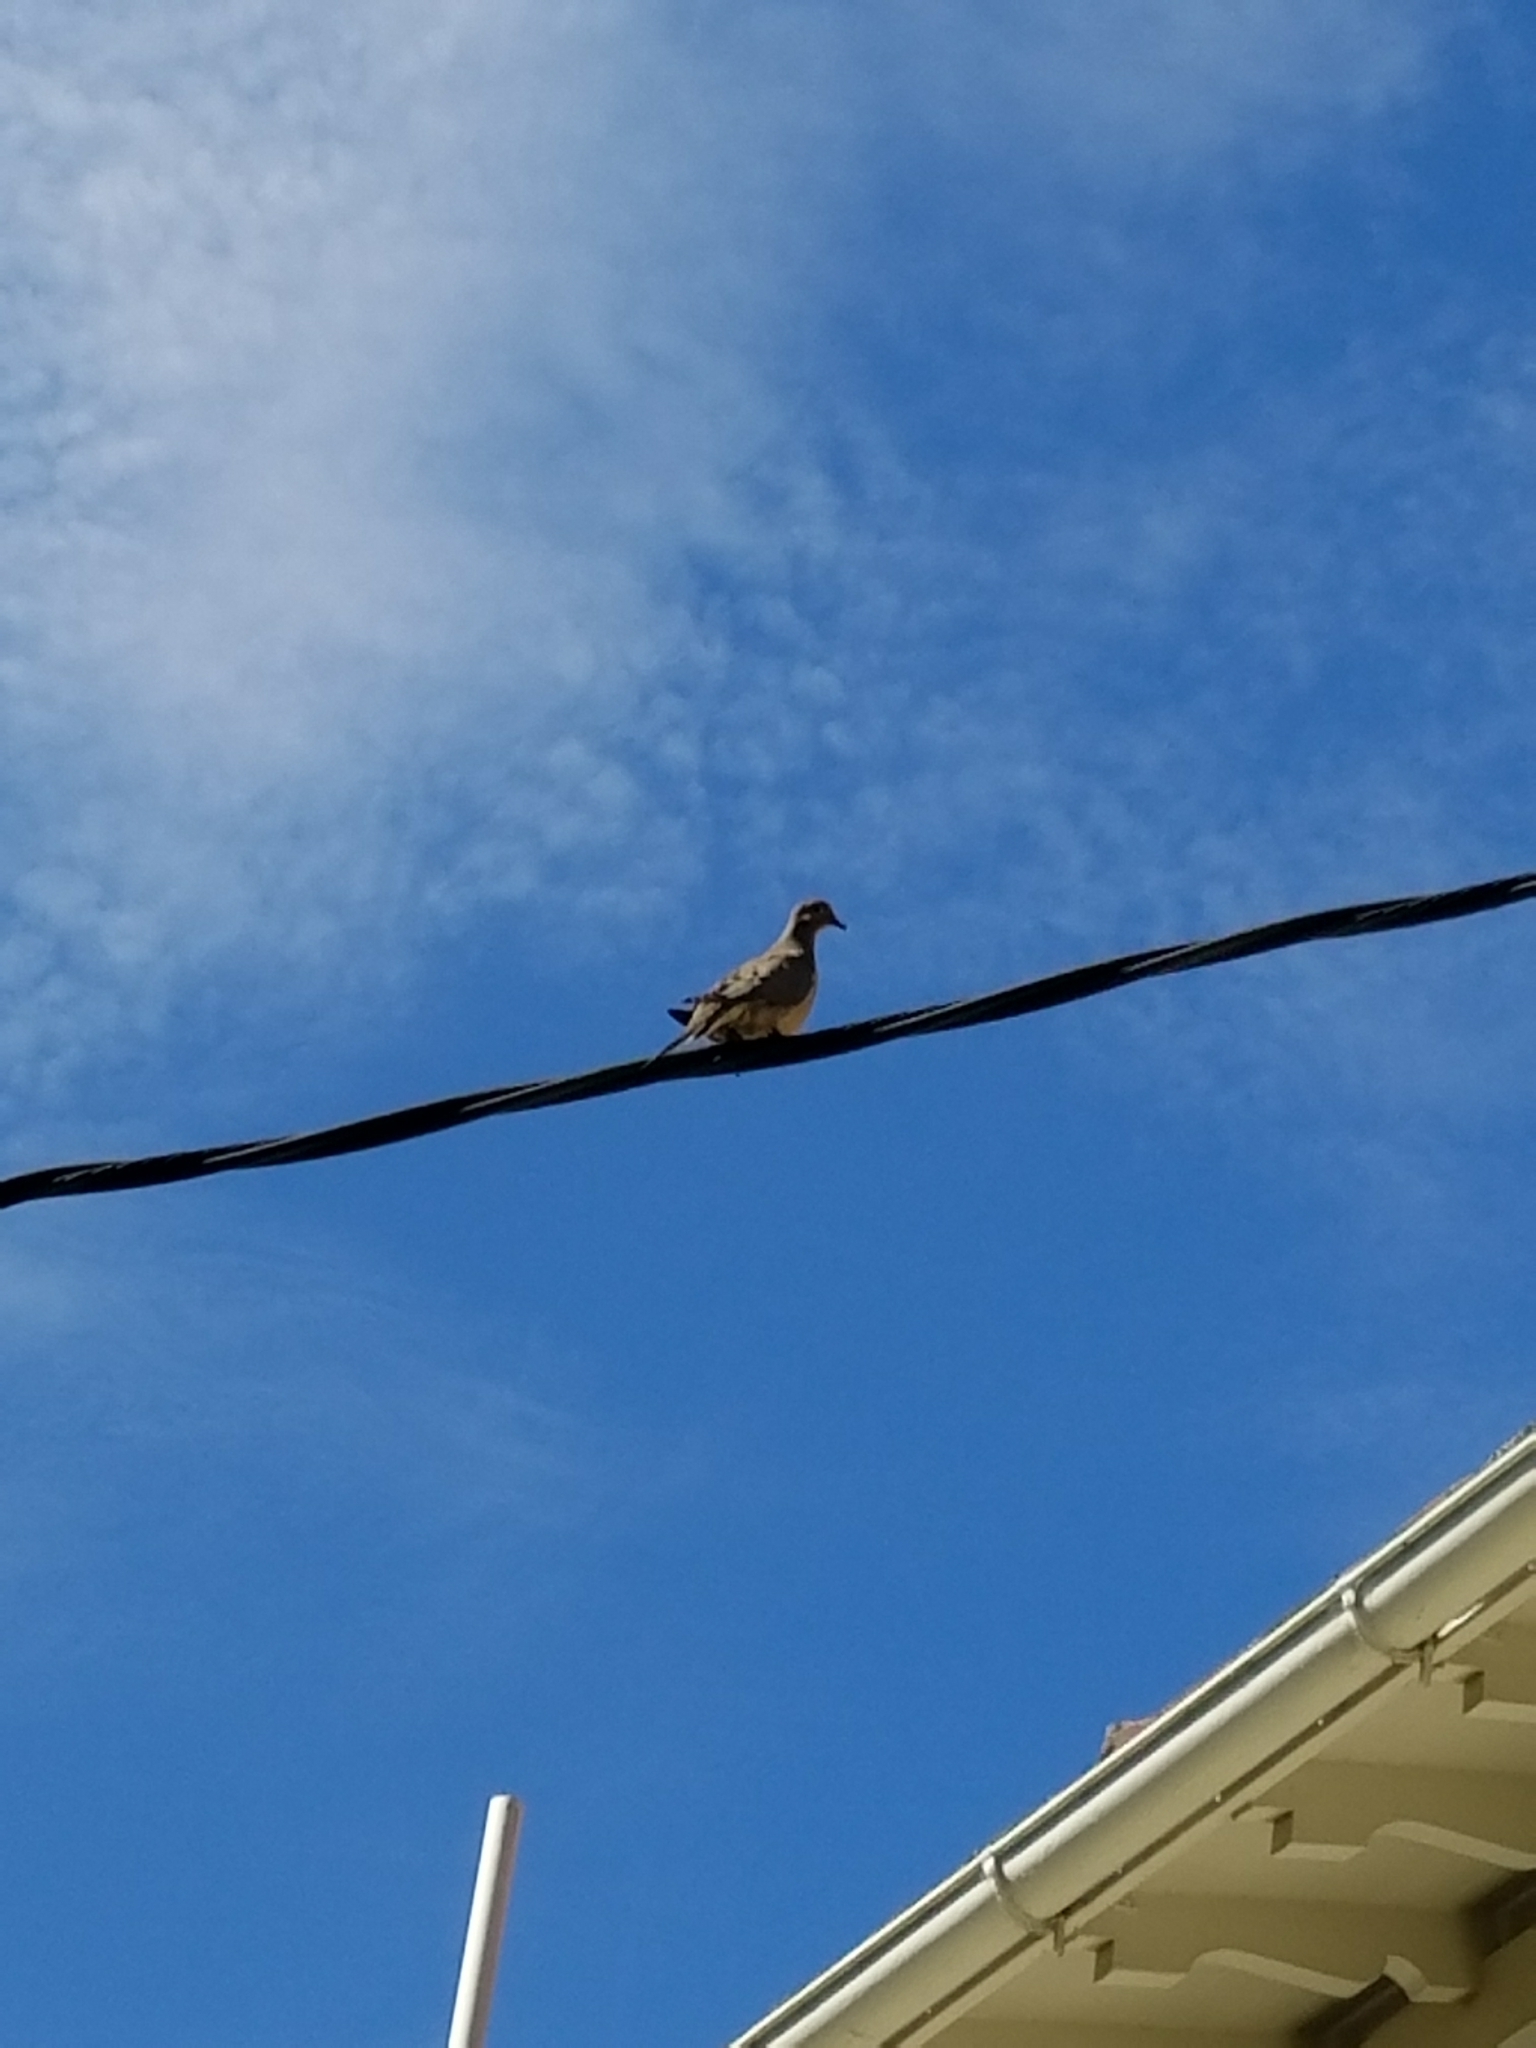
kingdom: Animalia
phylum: Chordata
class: Aves
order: Columbiformes
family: Columbidae
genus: Zenaida
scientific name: Zenaida macroura
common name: Mourning dove
